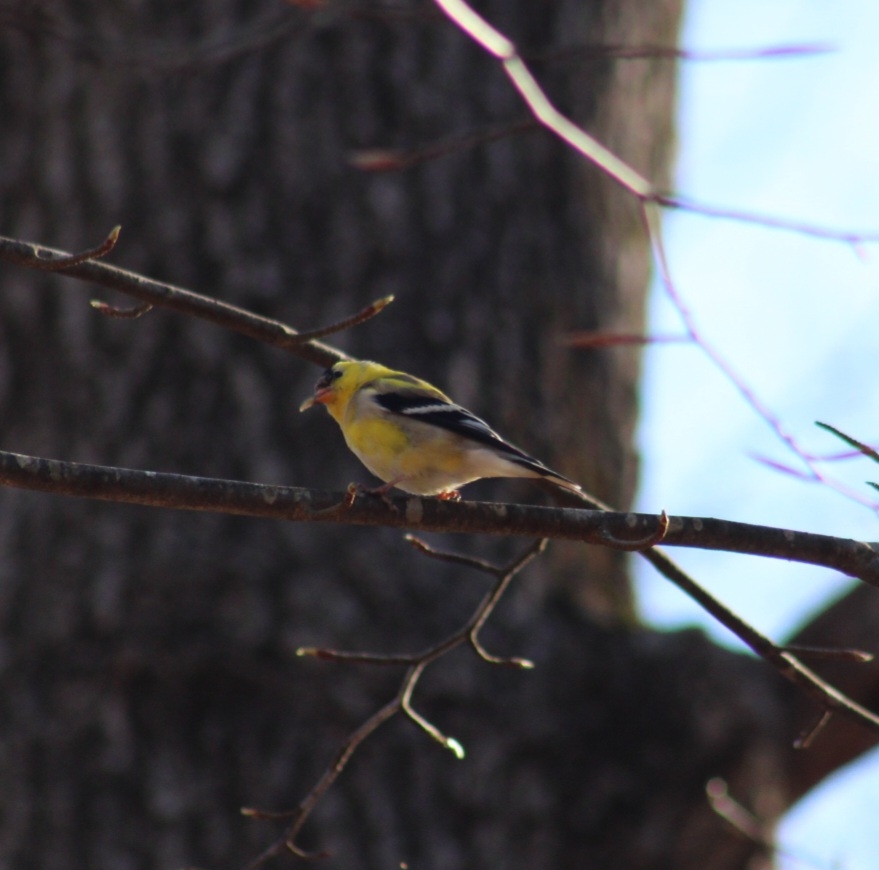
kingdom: Animalia
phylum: Chordata
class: Aves
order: Passeriformes
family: Fringillidae
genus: Spinus
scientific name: Spinus tristis
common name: American goldfinch
